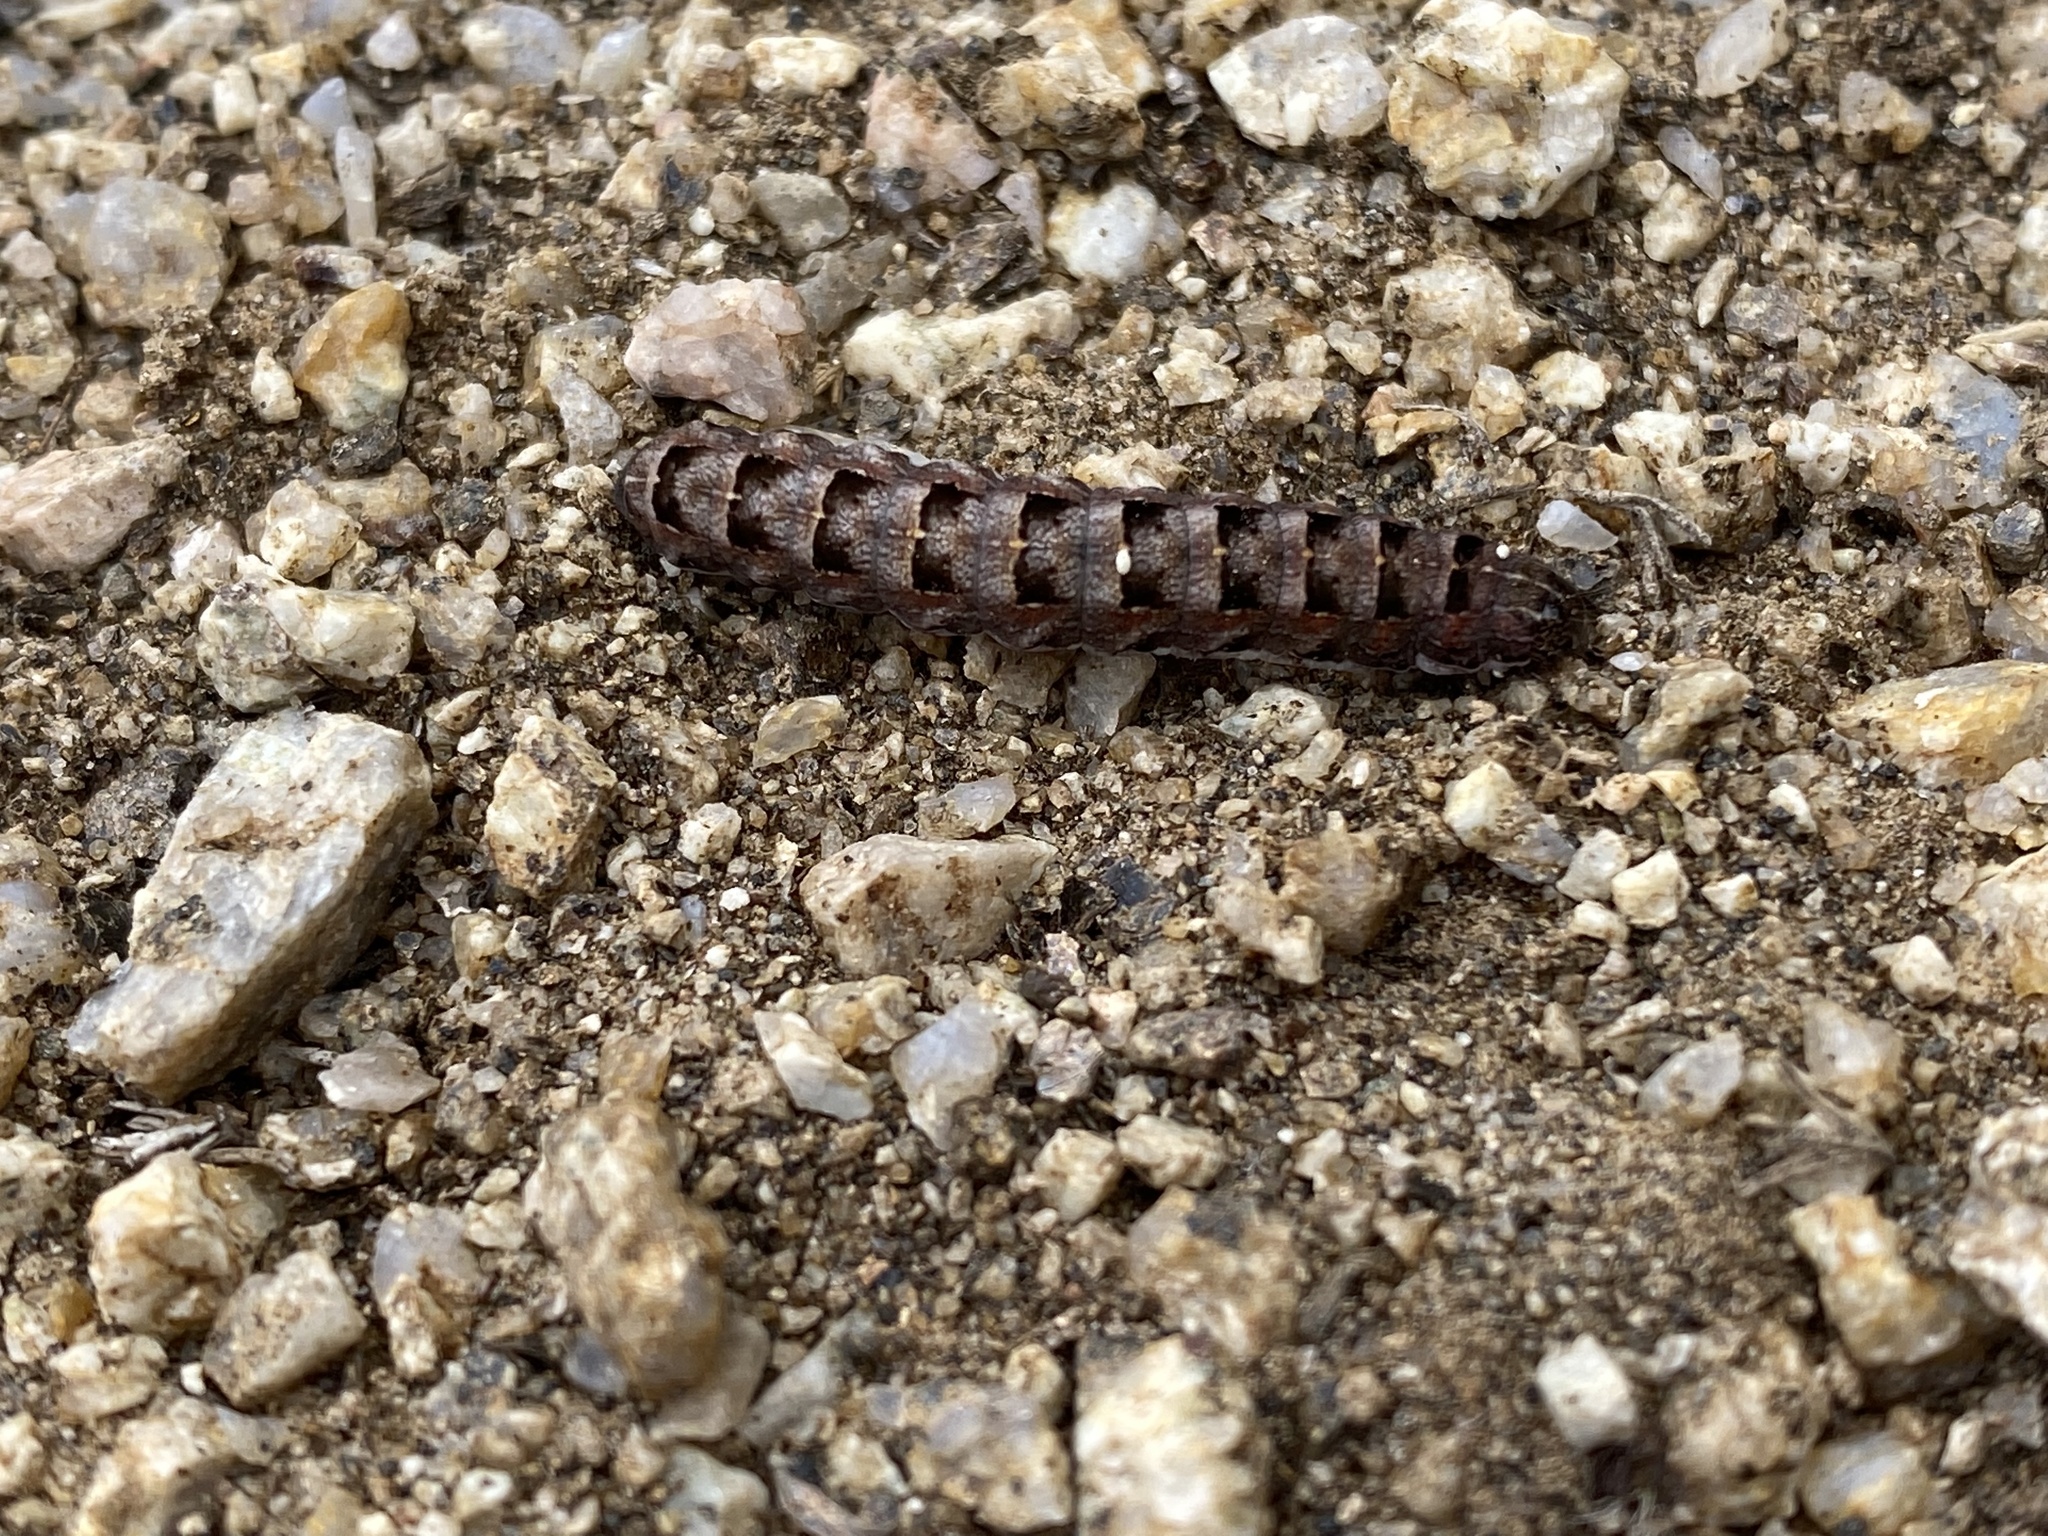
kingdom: Animalia
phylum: Arthropoda
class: Insecta
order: Lepidoptera
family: Noctuidae
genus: Spodoptera
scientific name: Spodoptera
